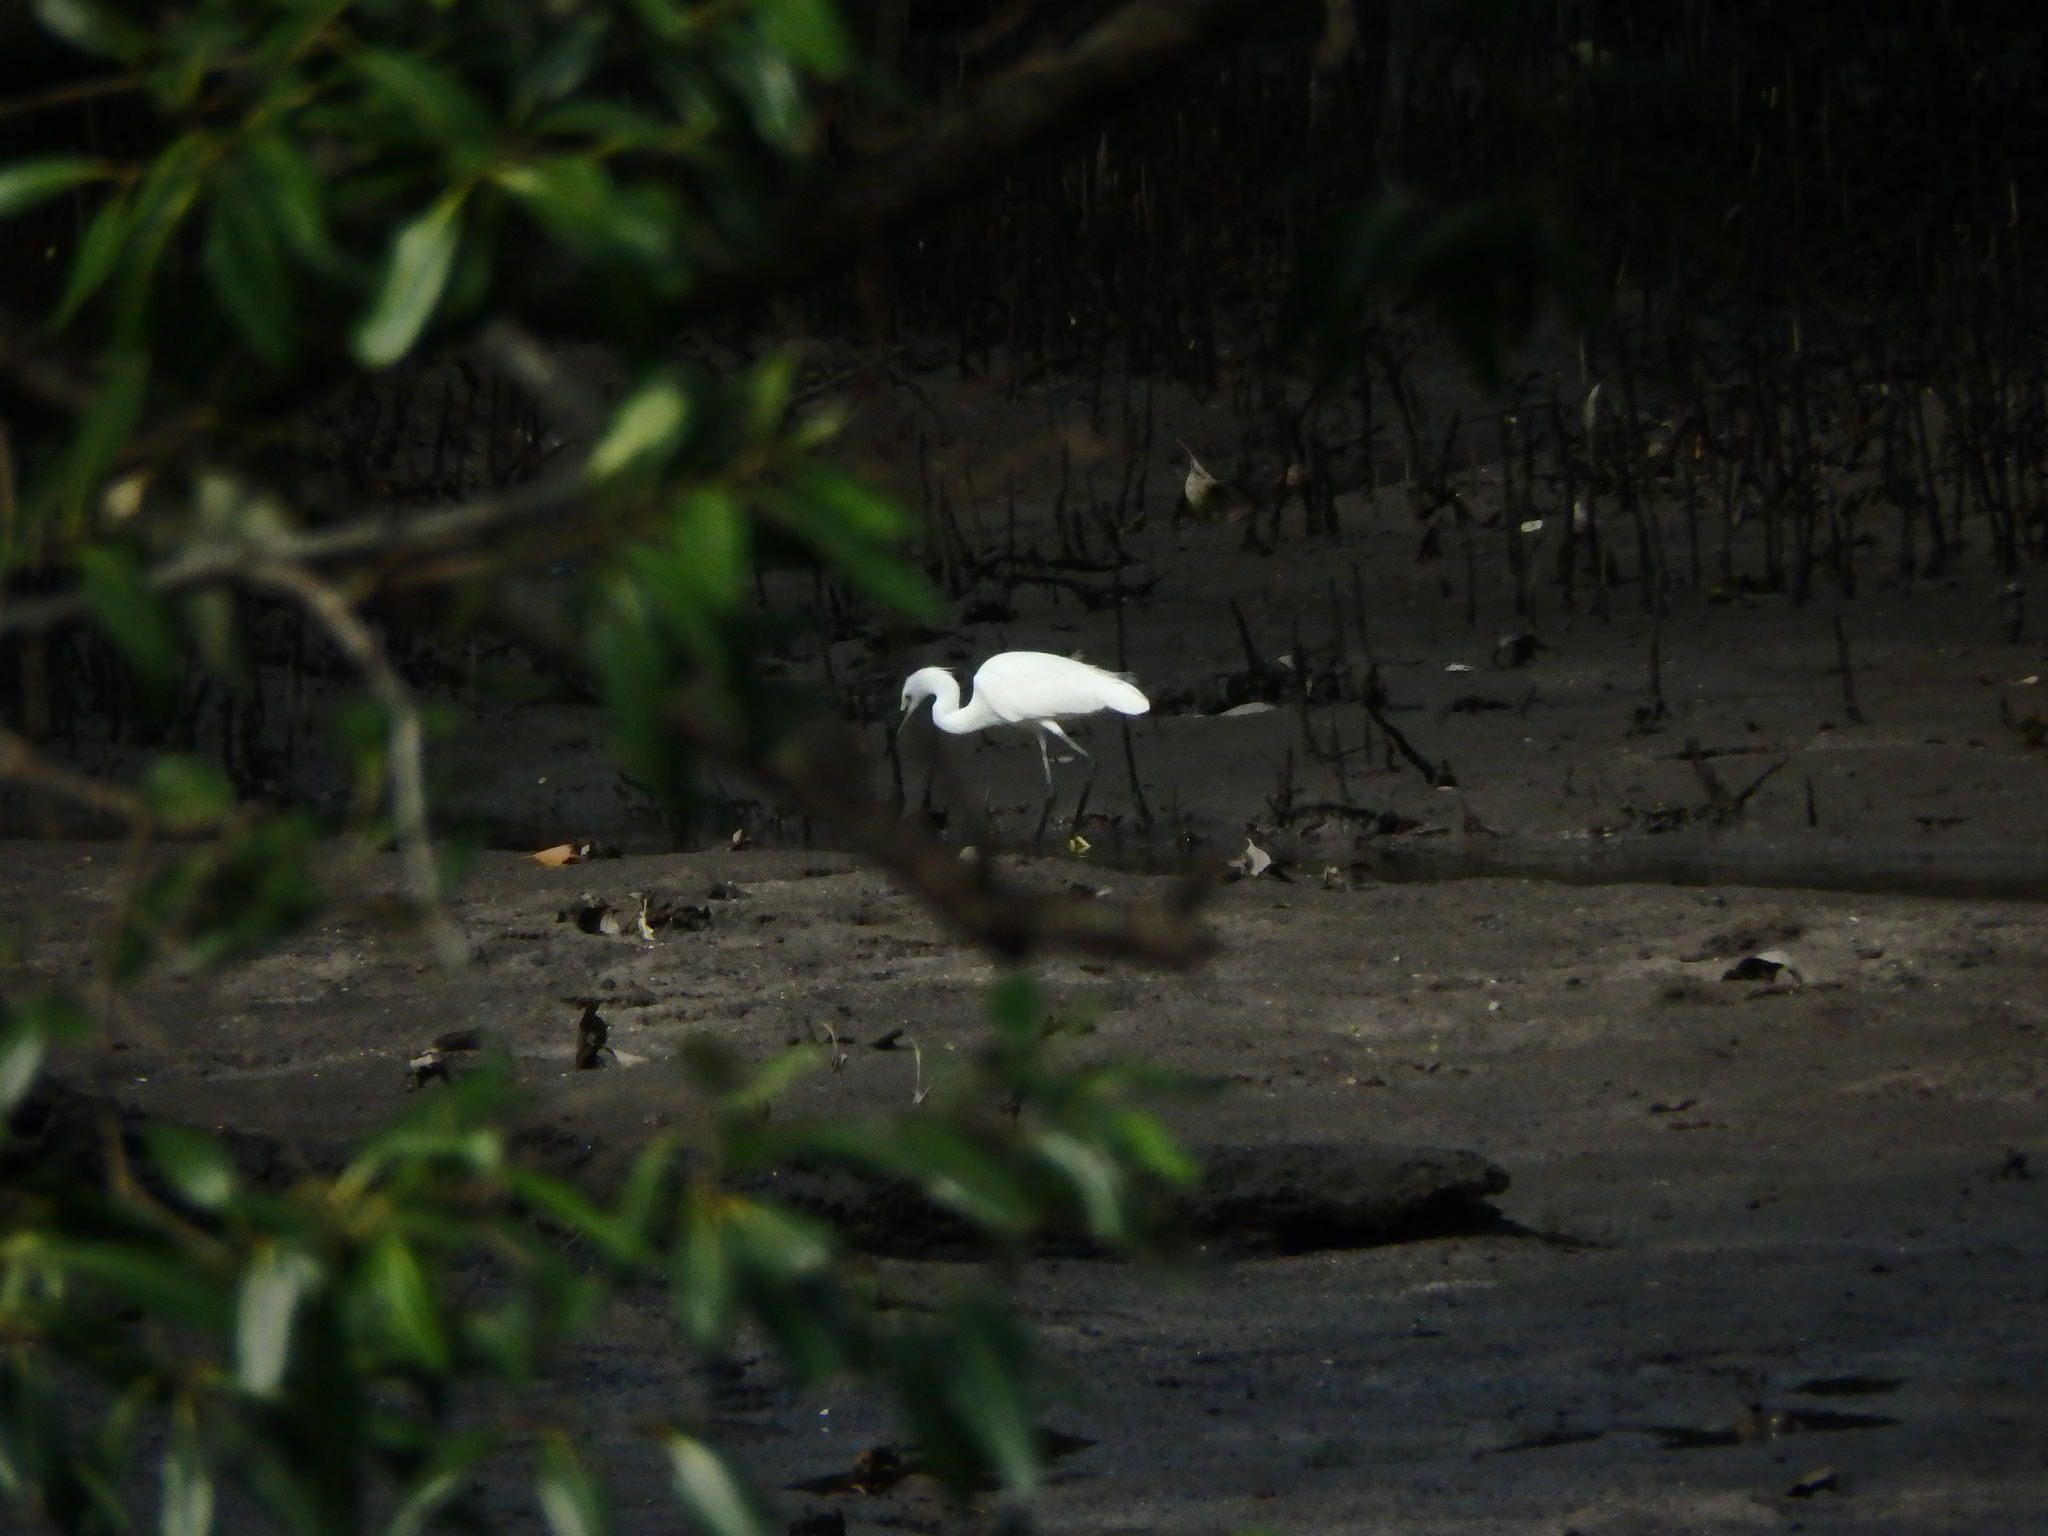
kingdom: Animalia
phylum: Chordata
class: Aves
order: Pelecaniformes
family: Ardeidae
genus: Egretta
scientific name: Egretta garzetta
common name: Little egret
